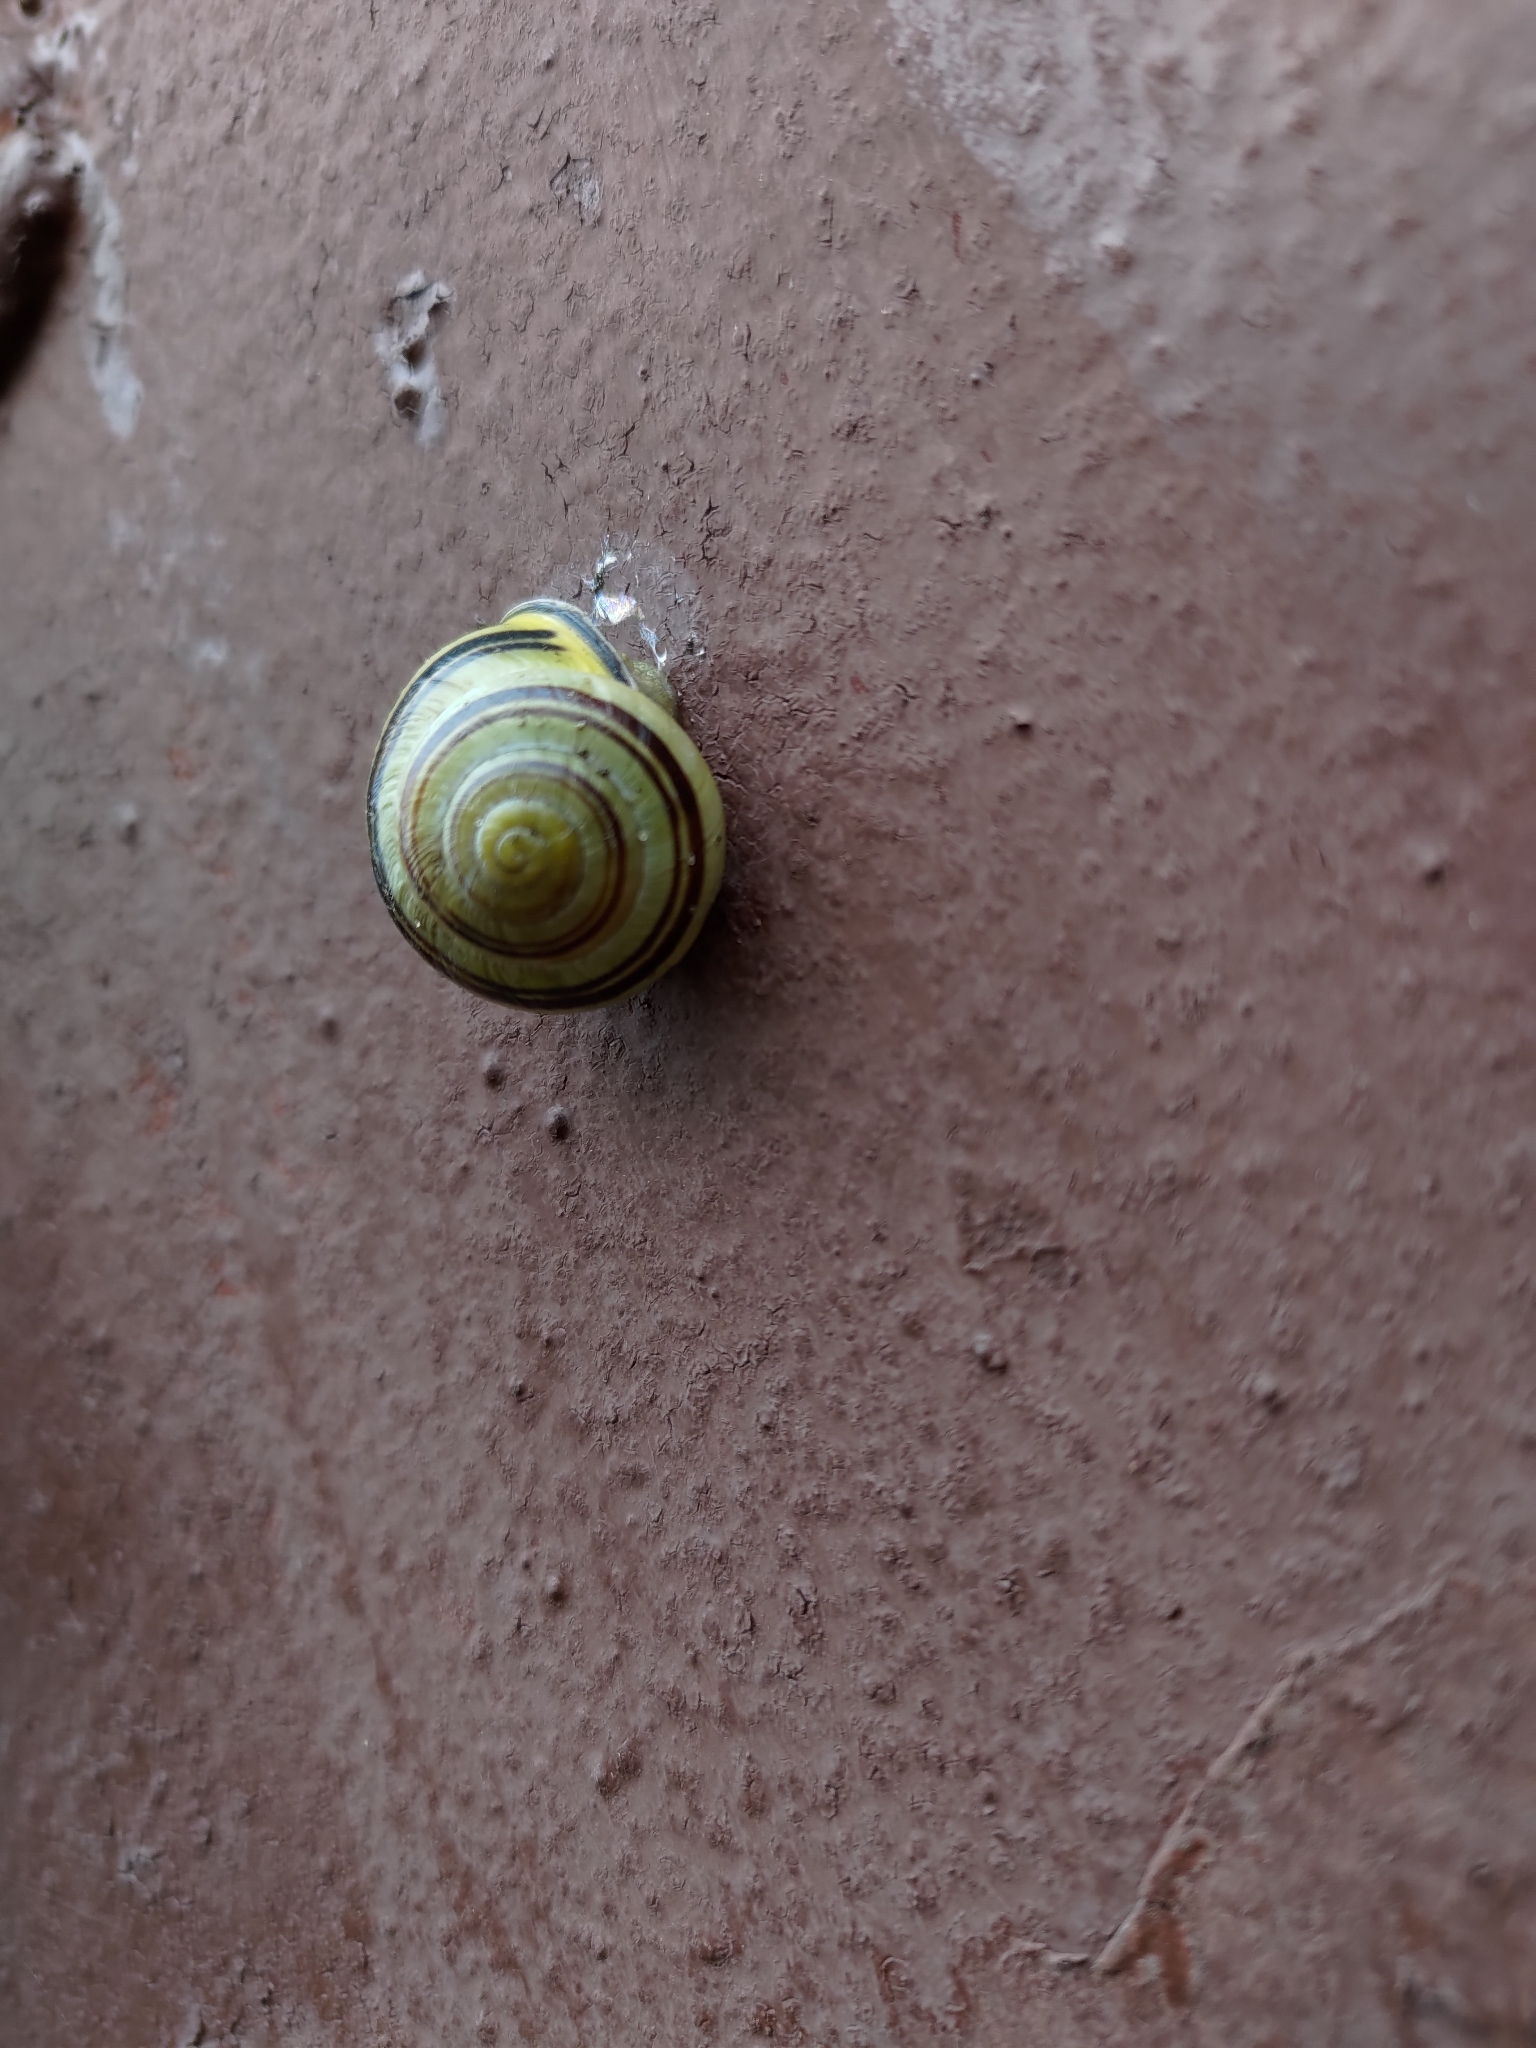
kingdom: Animalia
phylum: Mollusca
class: Gastropoda
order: Stylommatophora
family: Helicidae
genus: Cepaea
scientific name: Cepaea nemoralis
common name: Grovesnail
